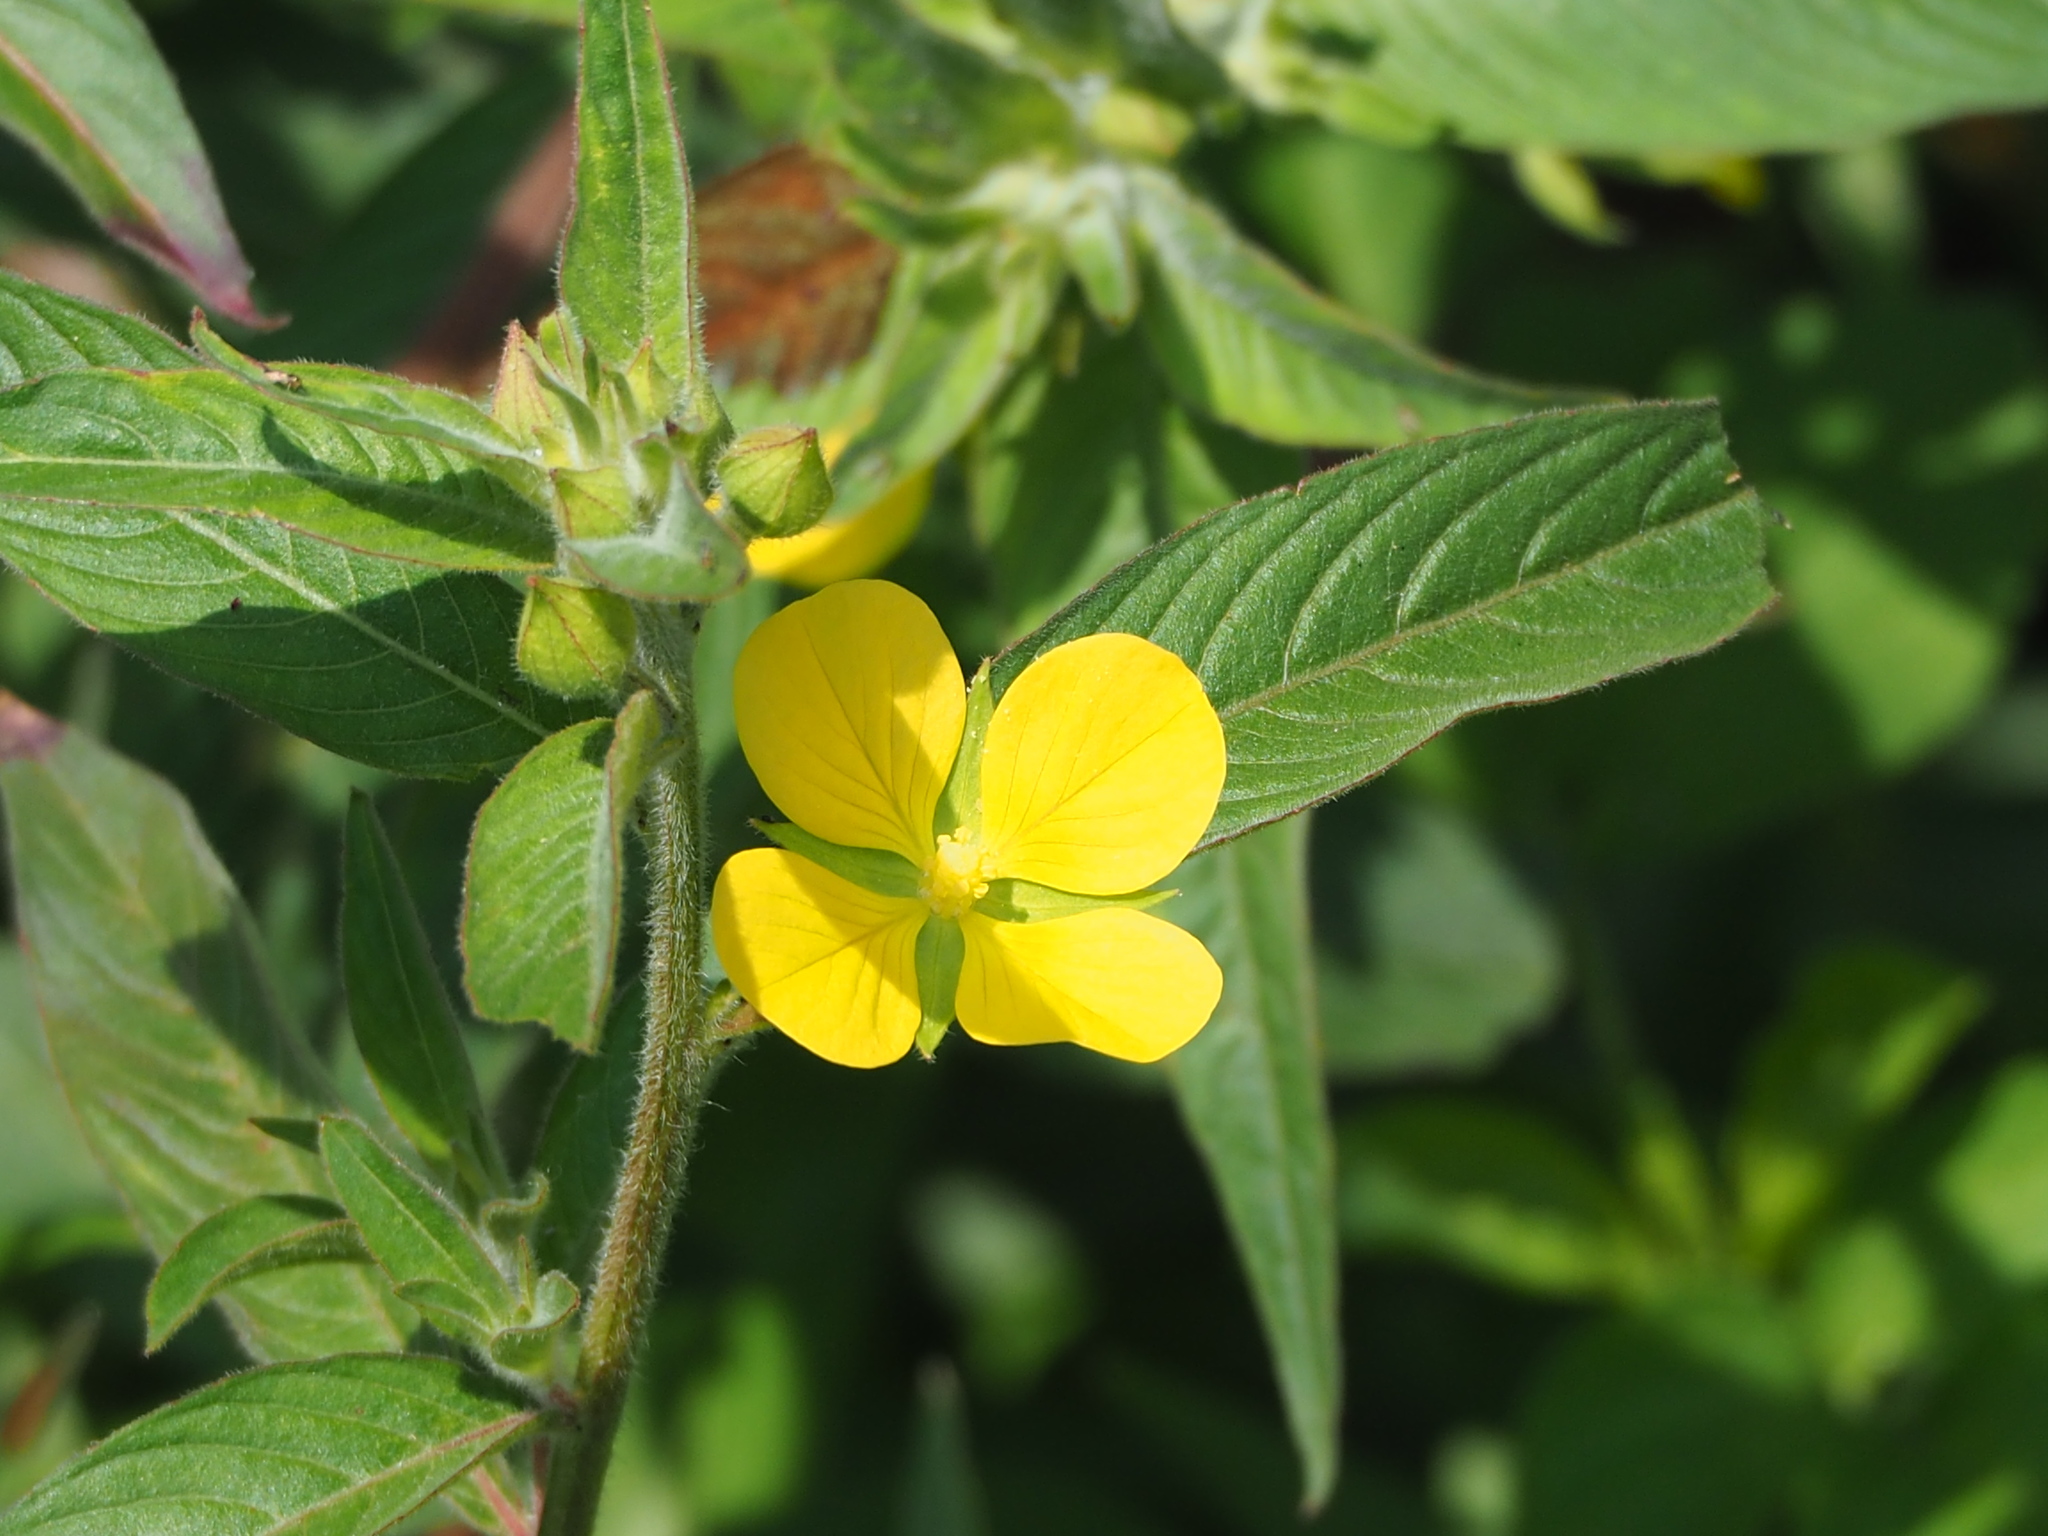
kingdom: Plantae
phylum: Tracheophyta
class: Magnoliopsida
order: Myrtales
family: Onagraceae
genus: Ludwigia
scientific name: Ludwigia octovalvis
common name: Water-primrose
